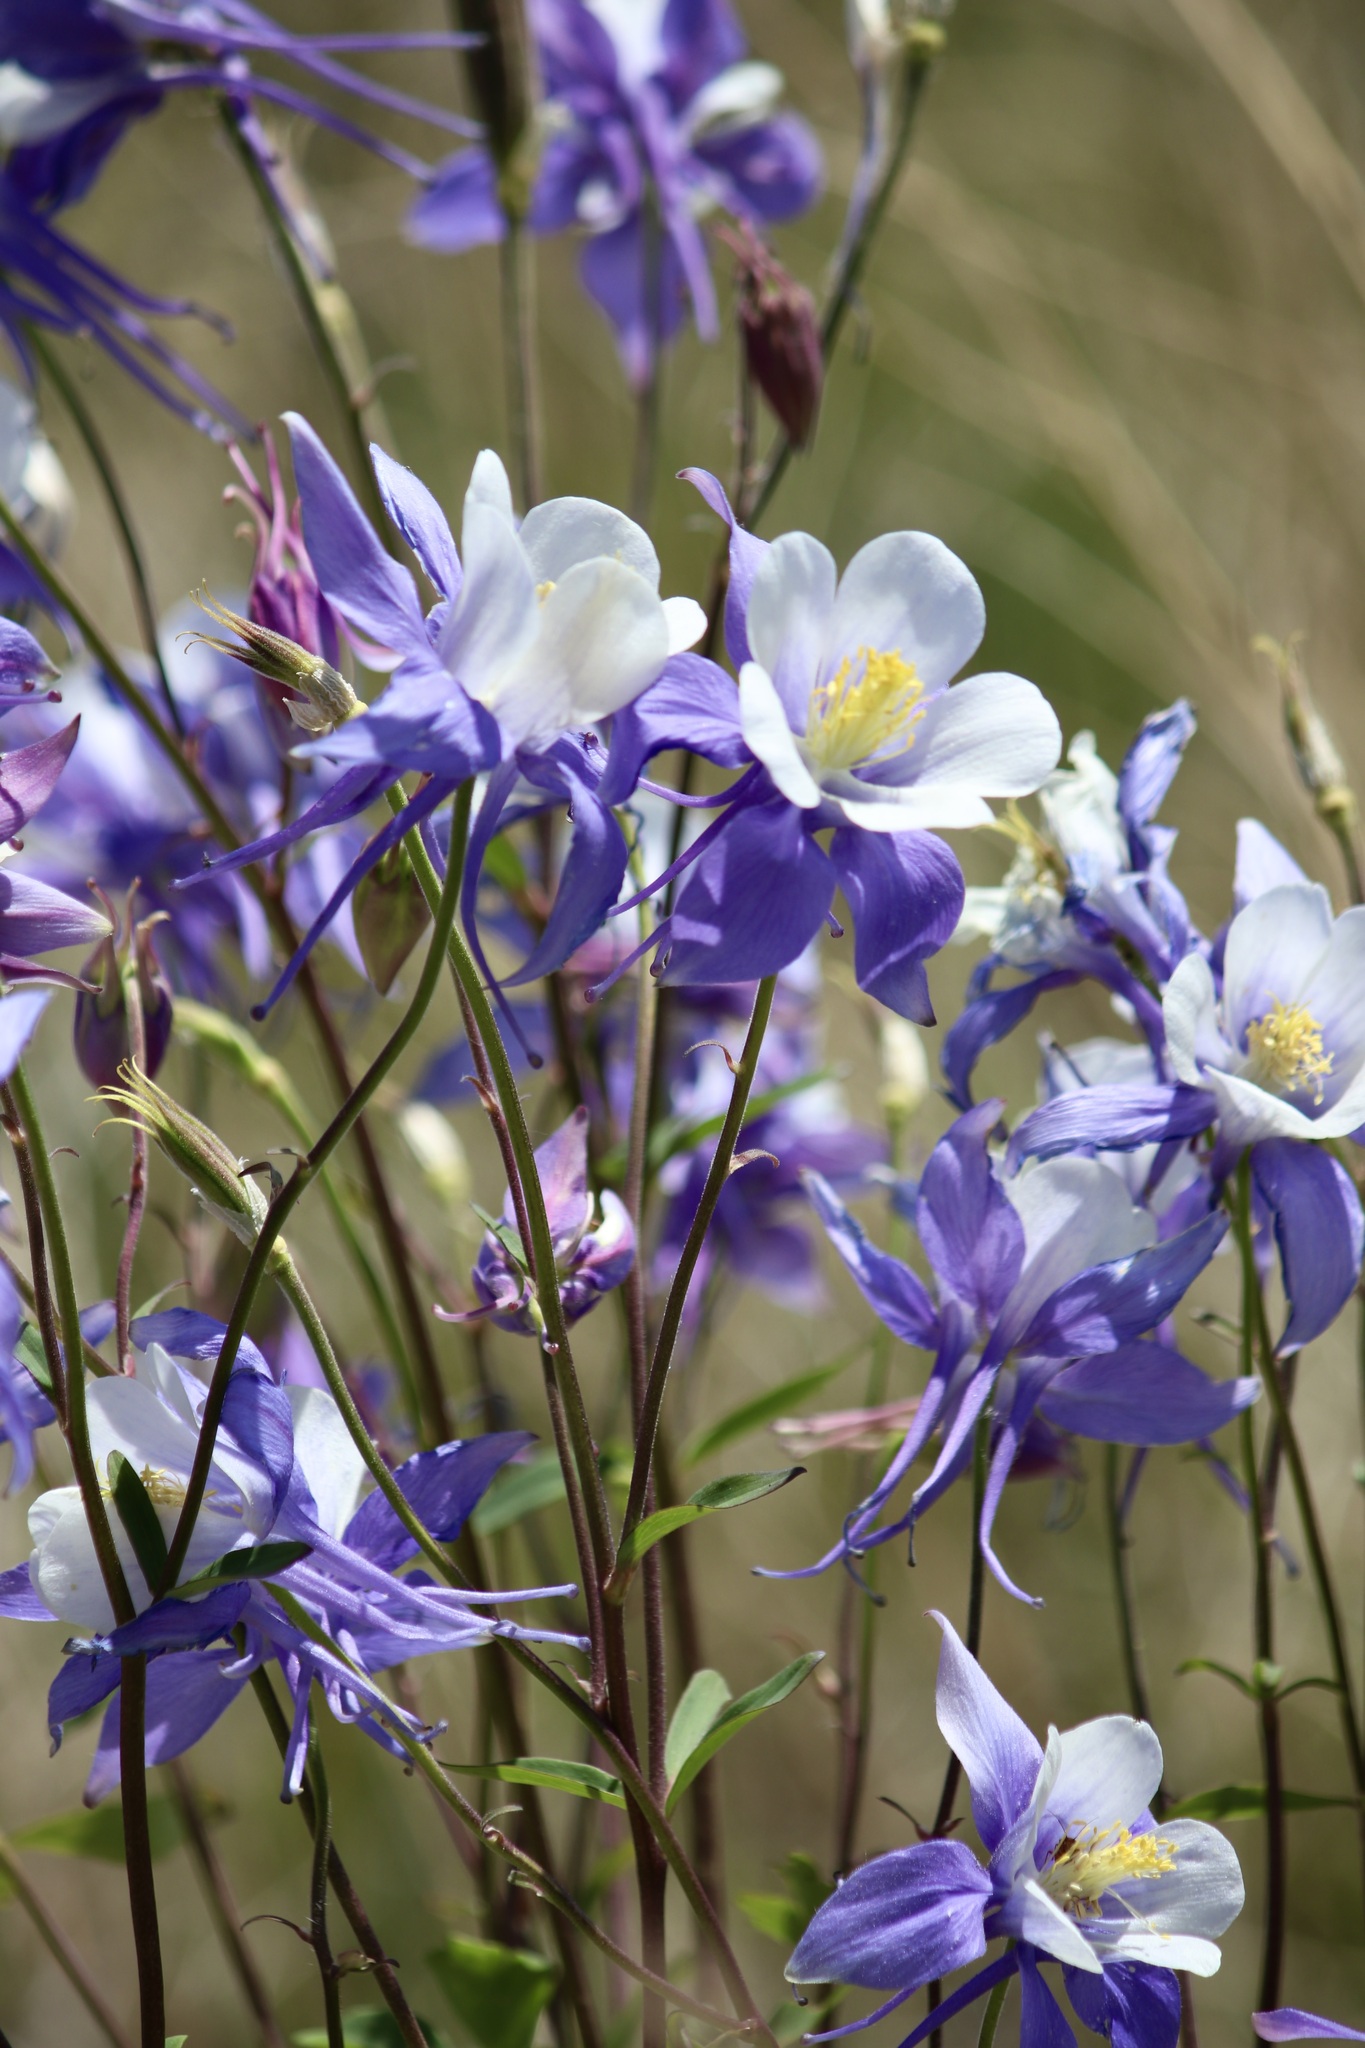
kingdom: Plantae
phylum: Tracheophyta
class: Magnoliopsida
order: Ranunculales
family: Ranunculaceae
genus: Aquilegia
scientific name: Aquilegia coerulea
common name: Rocky mountain columbine
